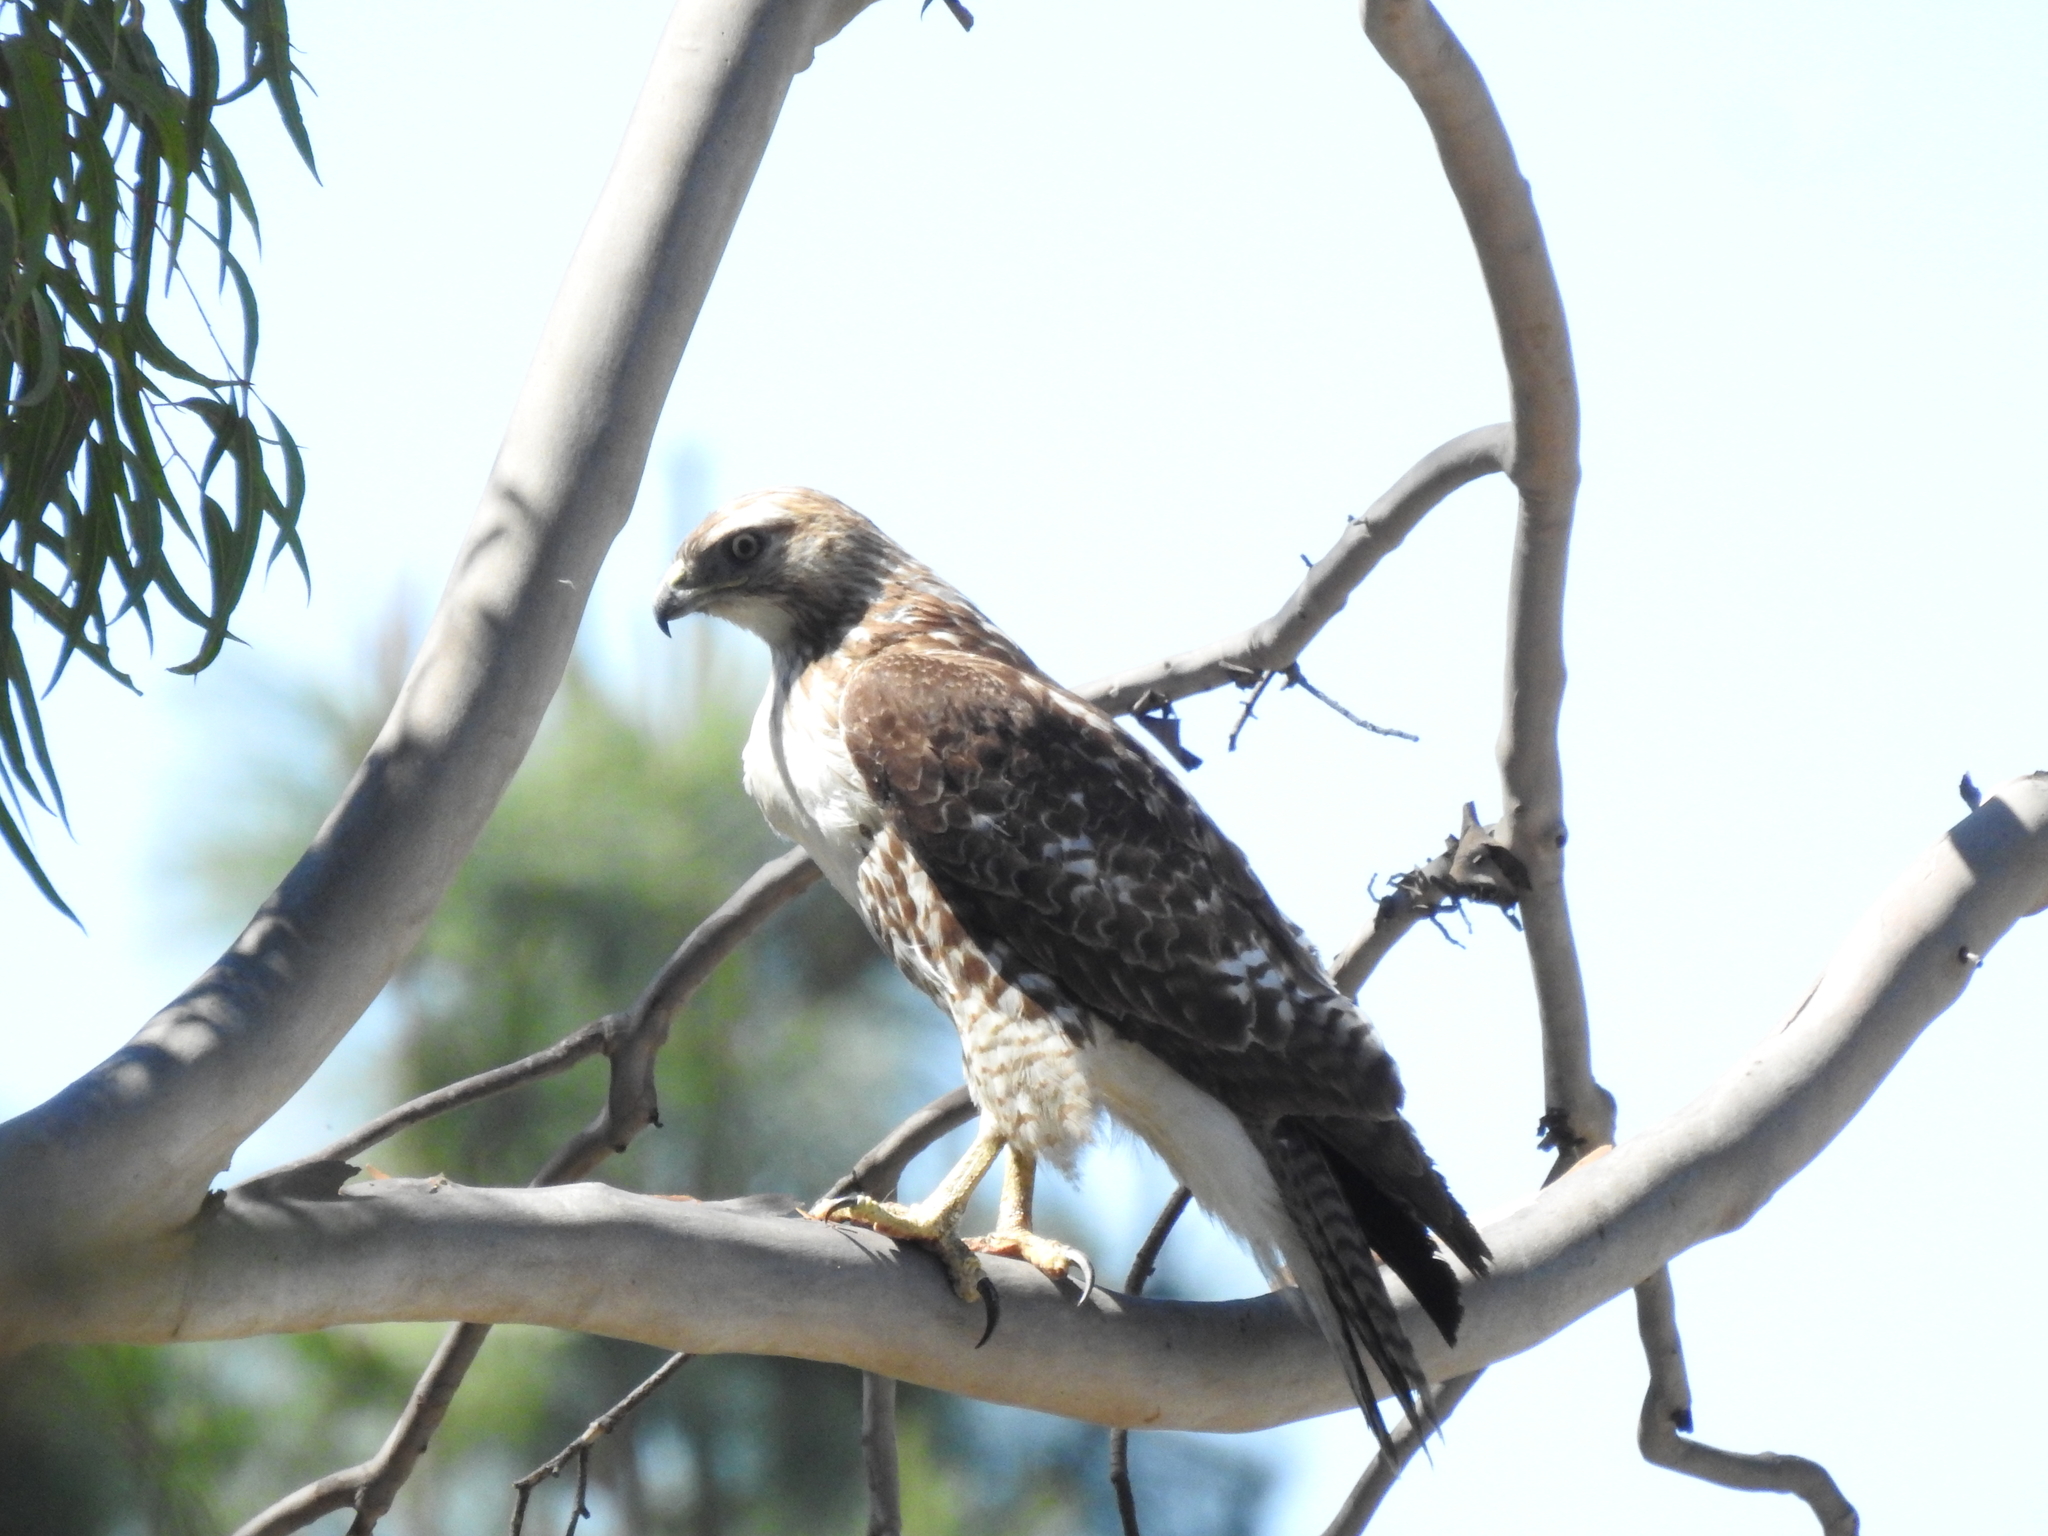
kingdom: Animalia
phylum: Chordata
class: Aves
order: Accipitriformes
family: Accipitridae
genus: Buteo
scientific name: Buteo jamaicensis
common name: Red-tailed hawk
